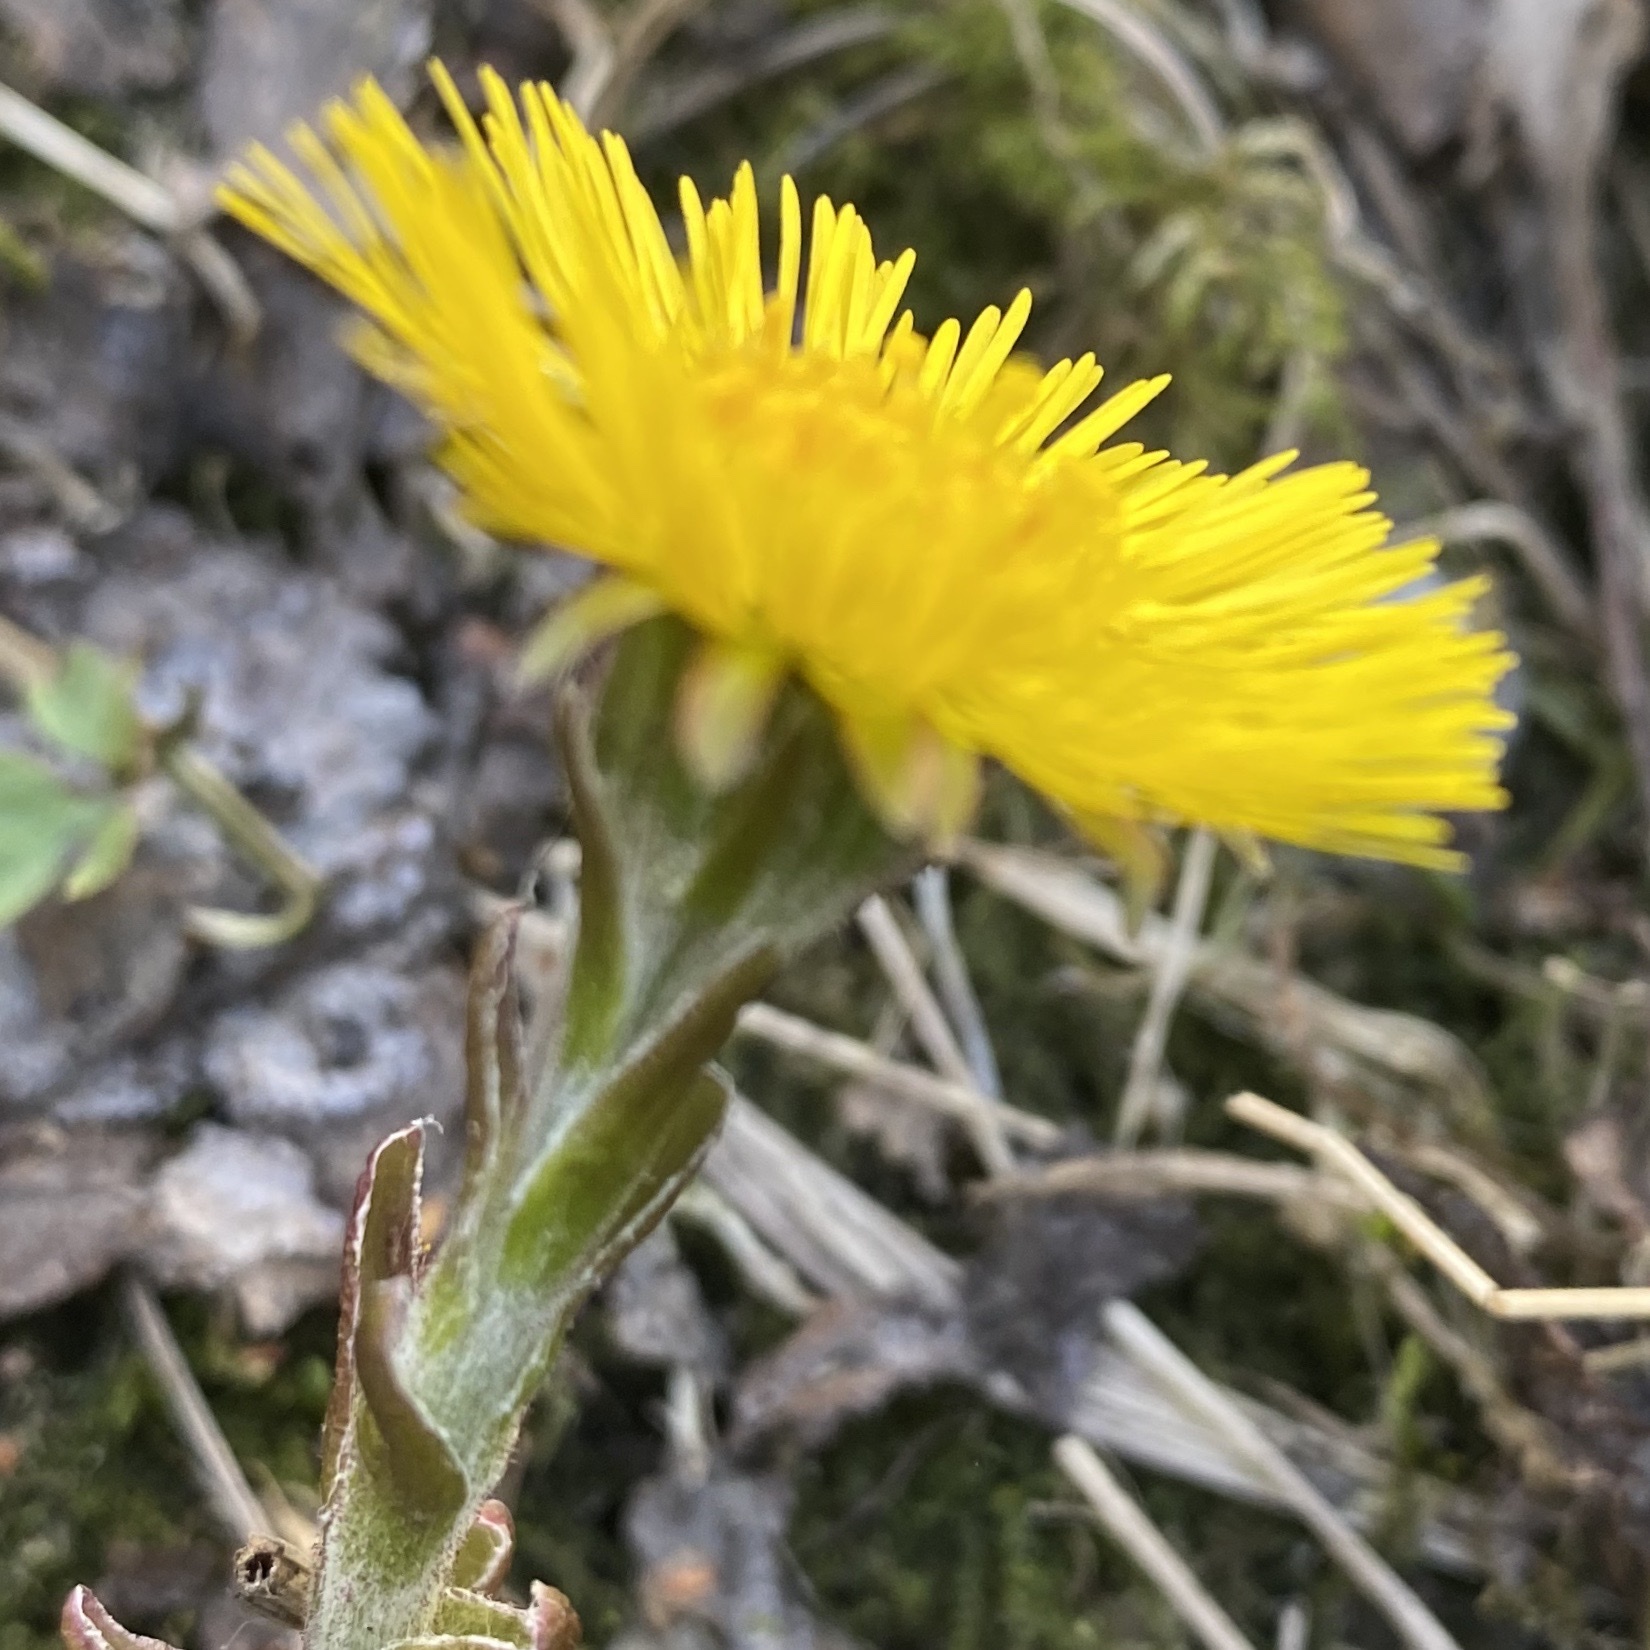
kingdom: Plantae
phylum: Tracheophyta
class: Magnoliopsida
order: Asterales
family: Asteraceae
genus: Tussilago
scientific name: Tussilago farfara
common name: Coltsfoot
